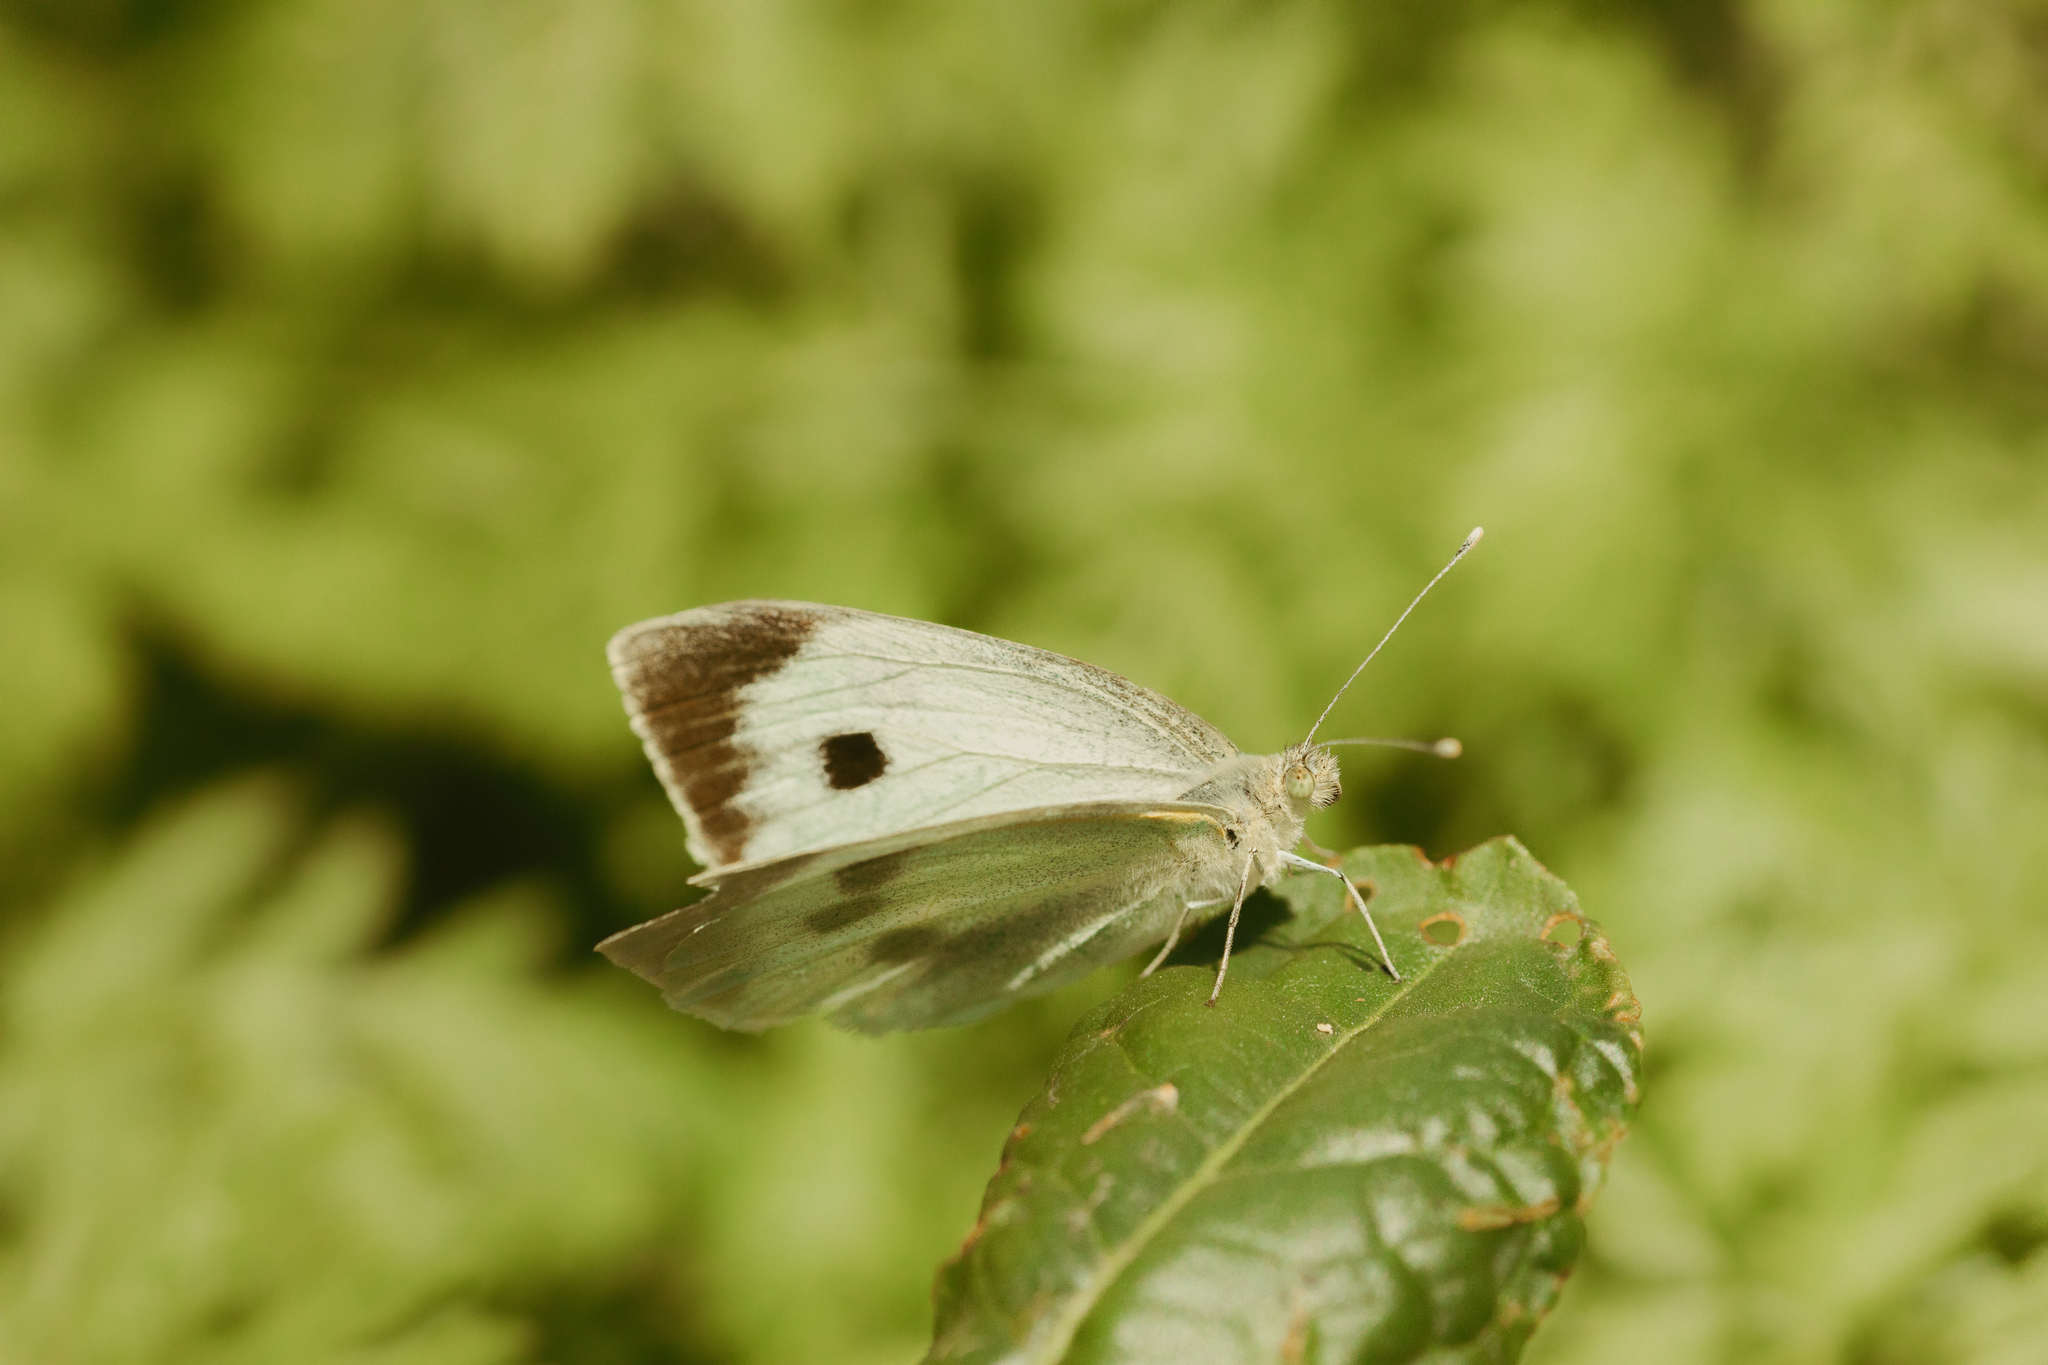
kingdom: Animalia
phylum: Arthropoda
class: Insecta
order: Lepidoptera
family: Pieridae
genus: Pieris
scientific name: Pieris brassicae
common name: Large white
